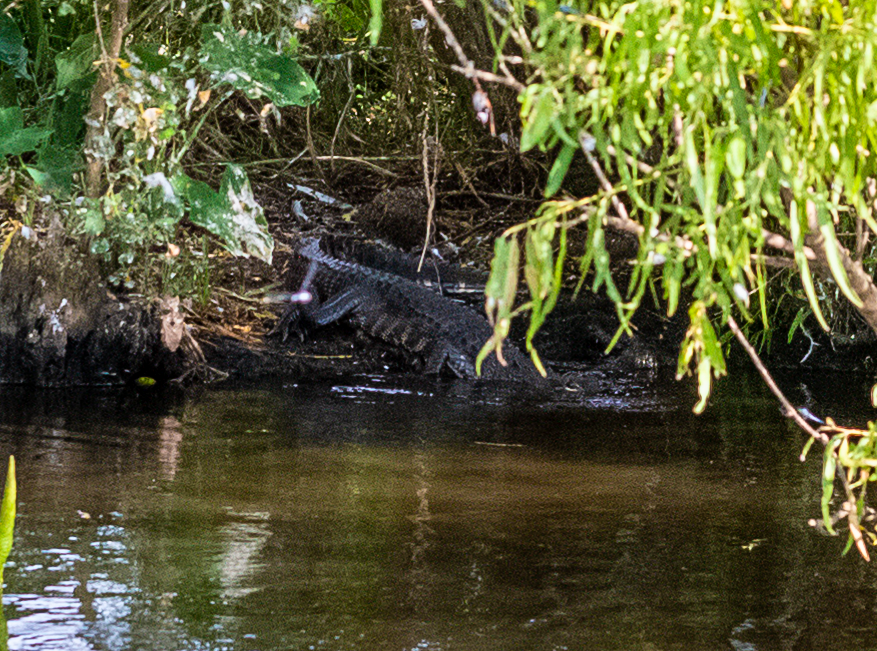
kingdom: Animalia
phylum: Chordata
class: Crocodylia
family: Alligatoridae
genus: Alligator
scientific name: Alligator mississippiensis
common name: American alligator
